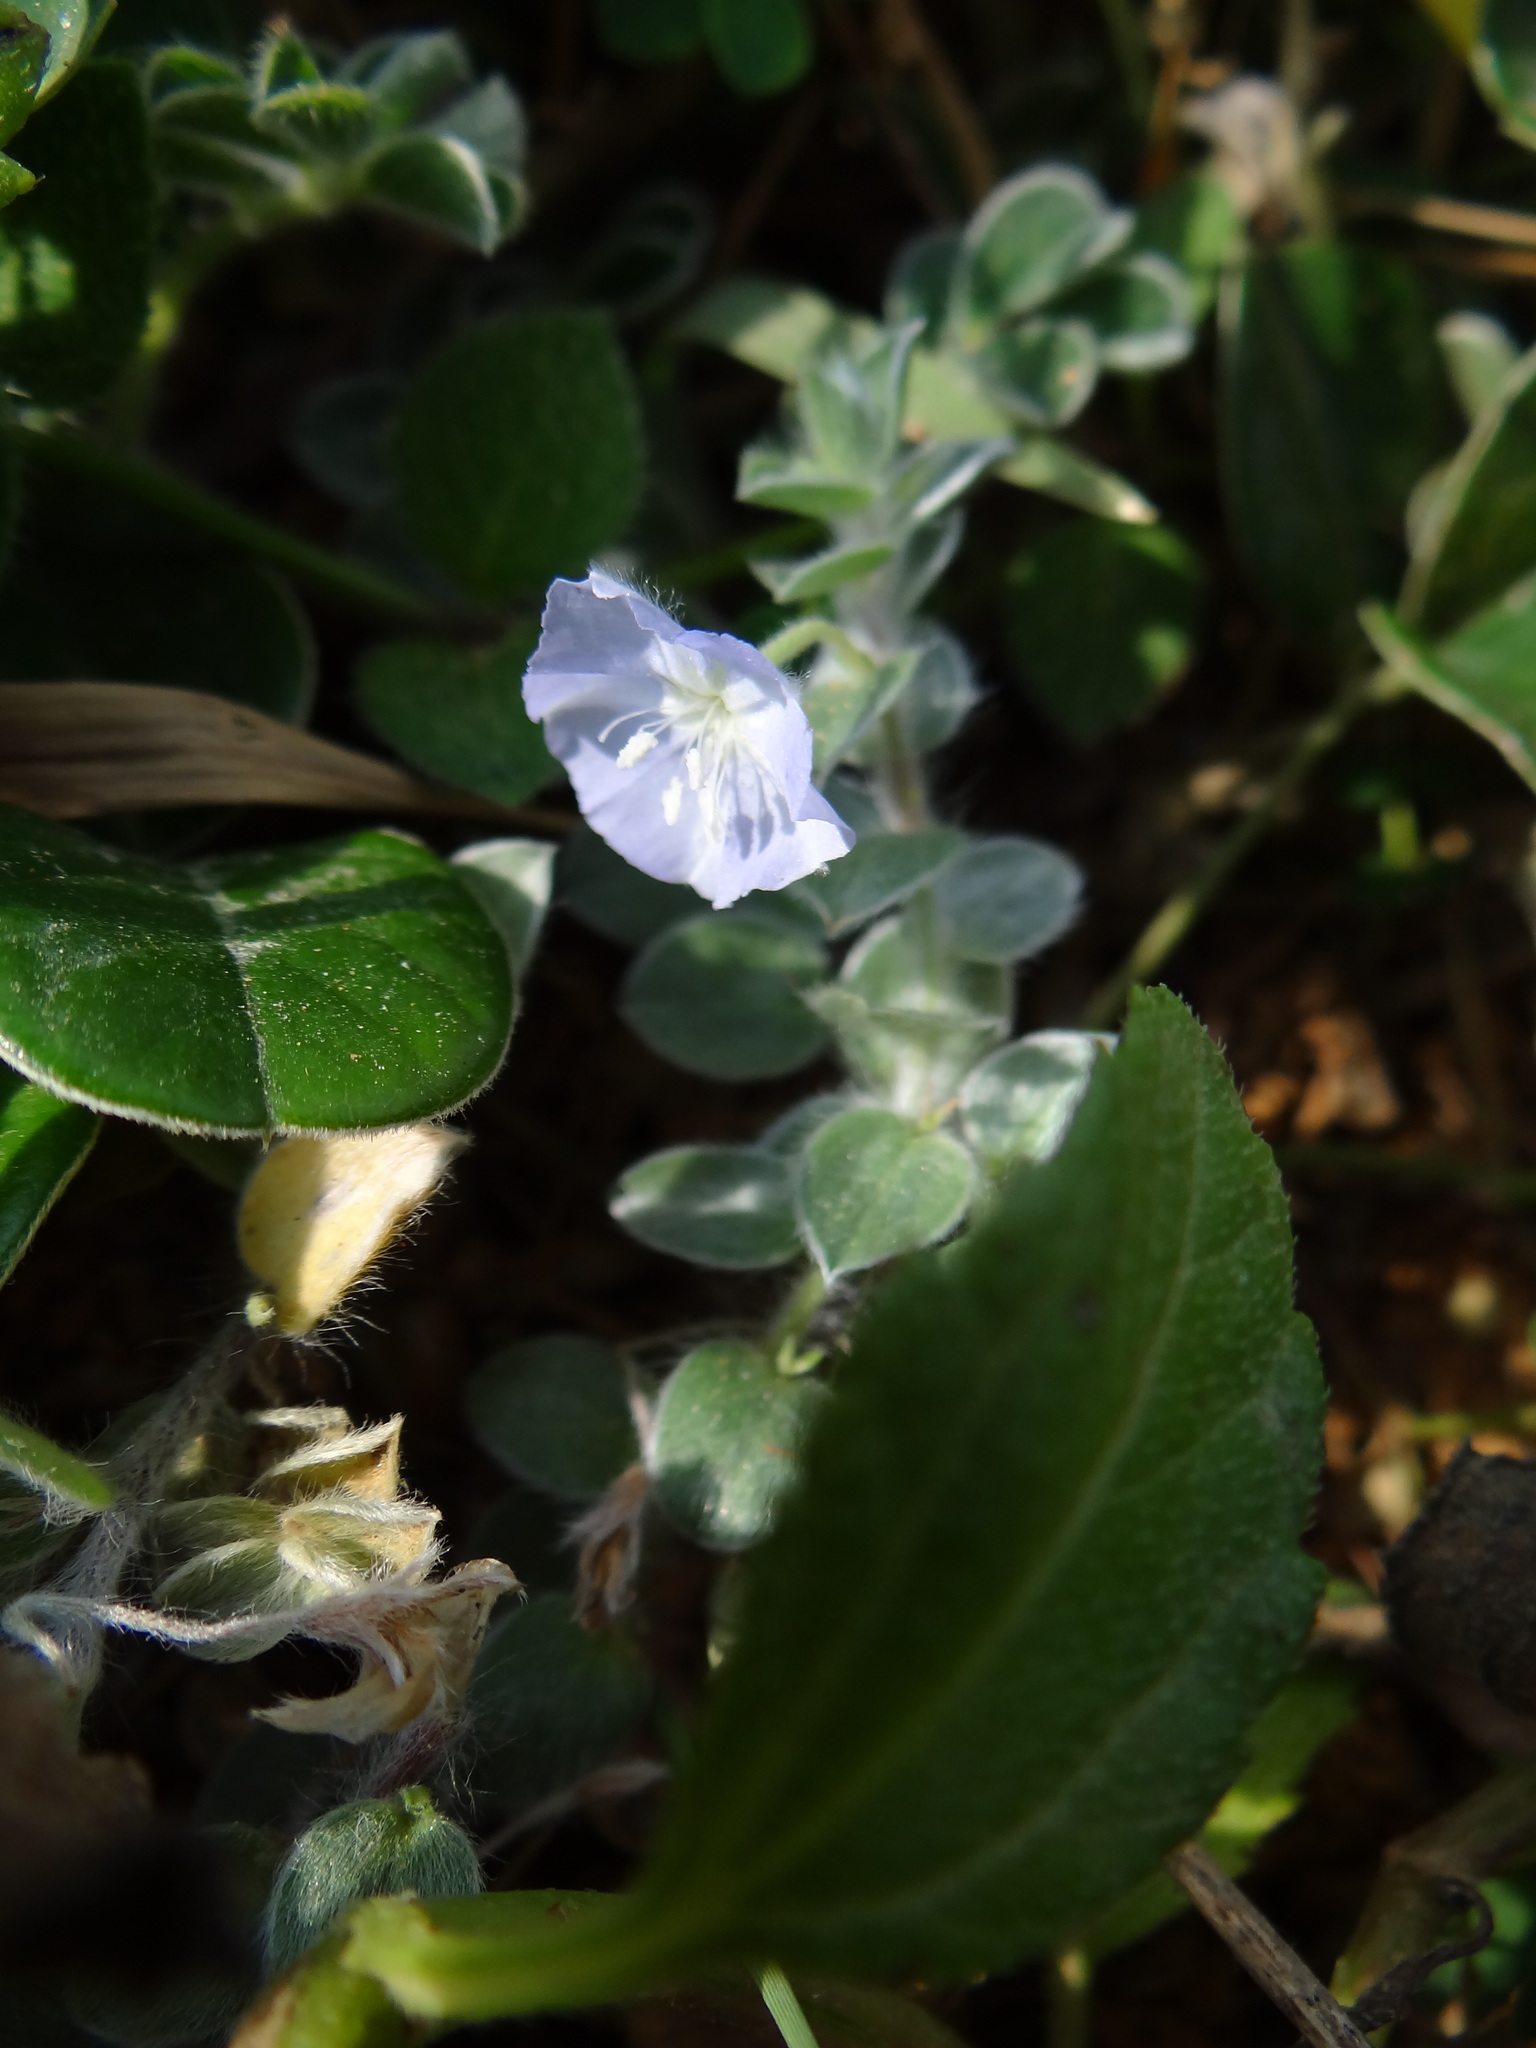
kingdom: Plantae
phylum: Tracheophyta
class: Magnoliopsida
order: Solanales
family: Convolvulaceae
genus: Evolvulus
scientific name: Evolvulus alsinoides
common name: Slender dwarf morning-glory
